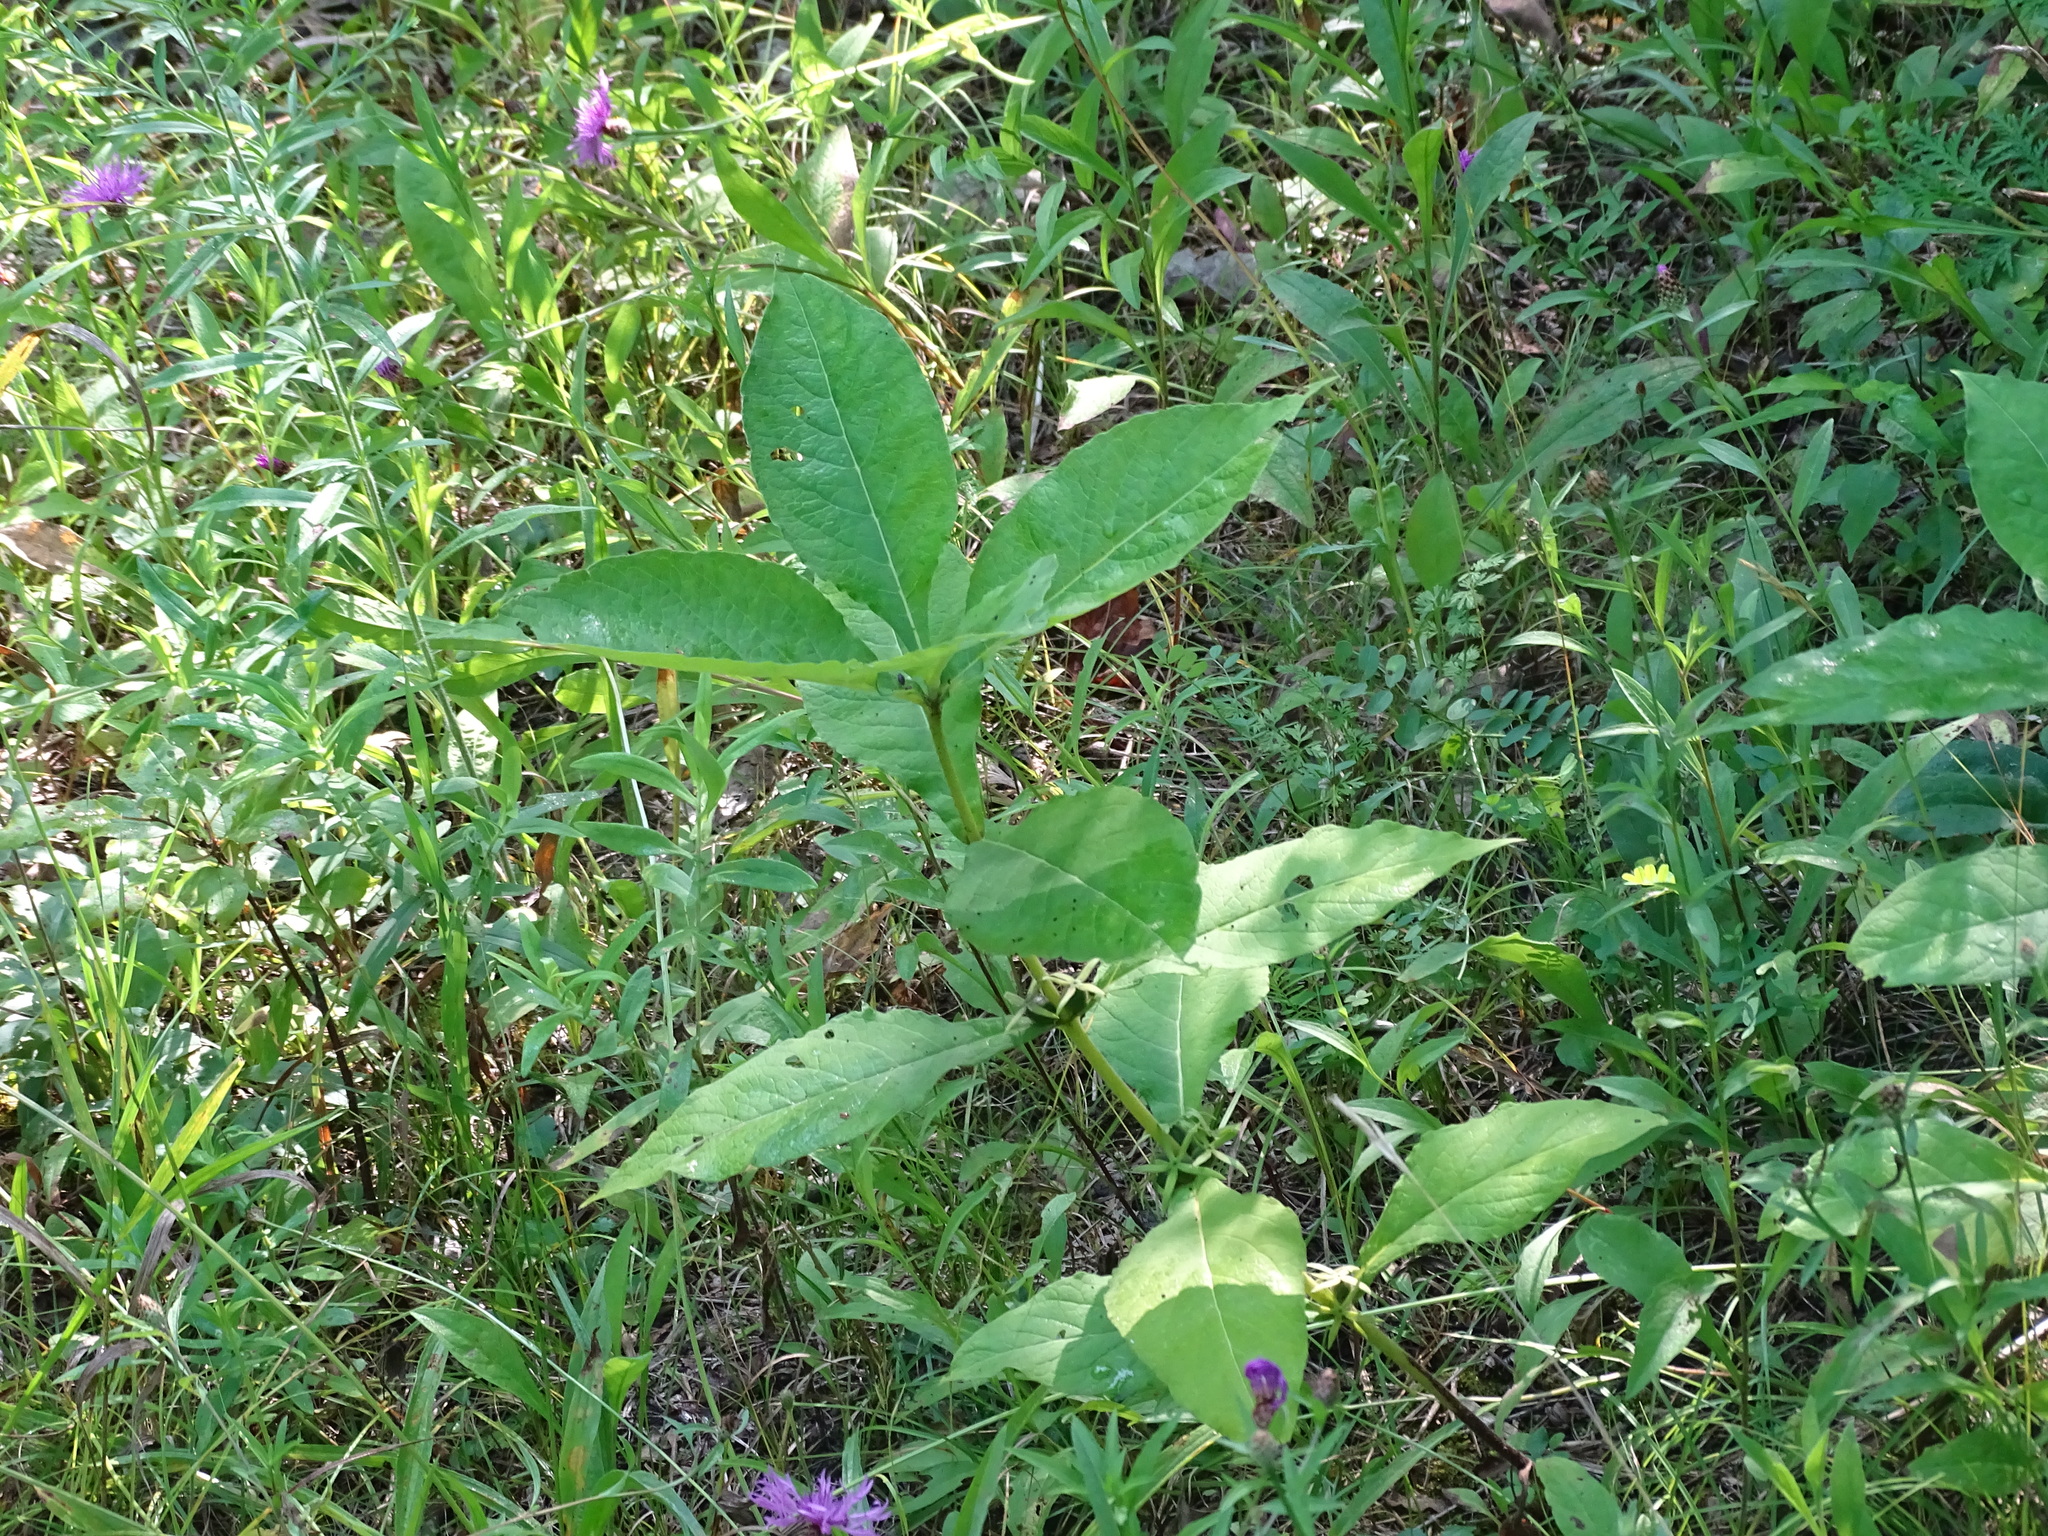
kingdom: Plantae
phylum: Tracheophyta
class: Magnoliopsida
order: Dipsacales
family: Caprifoliaceae
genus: Triosteum
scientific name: Triosteum aurantiacum
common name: Coffee tinker's-weed
